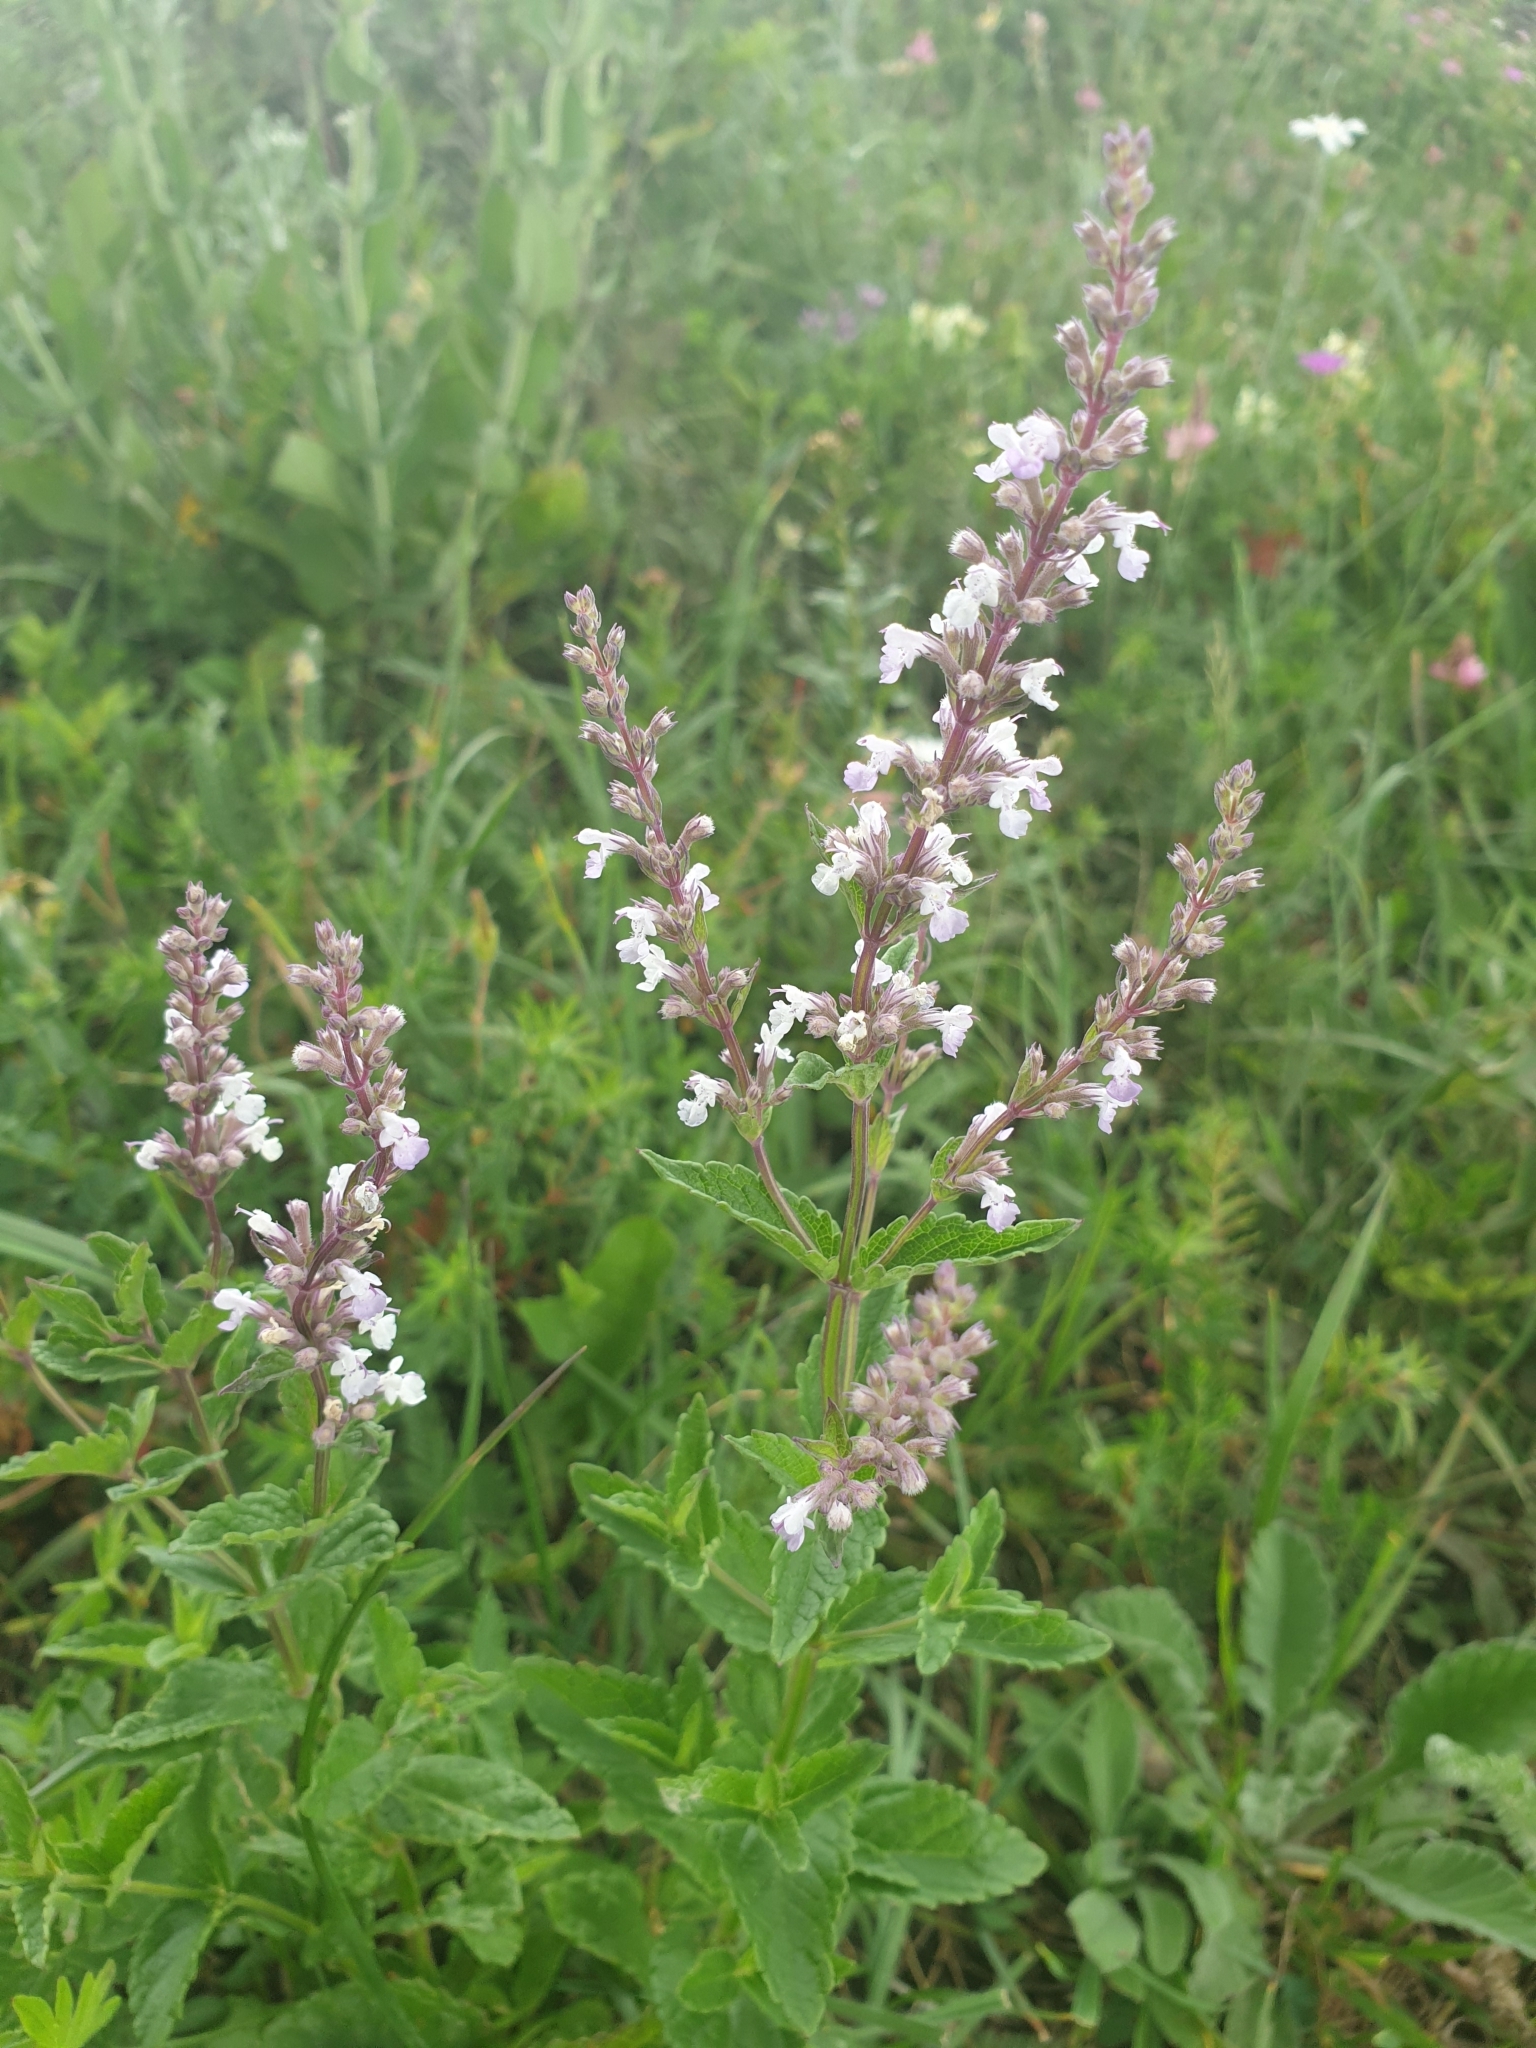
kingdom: Plantae
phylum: Tracheophyta
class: Magnoliopsida
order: Lamiales
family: Lamiaceae
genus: Nepeta
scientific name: Nepeta nuda
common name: Hairless catmint
